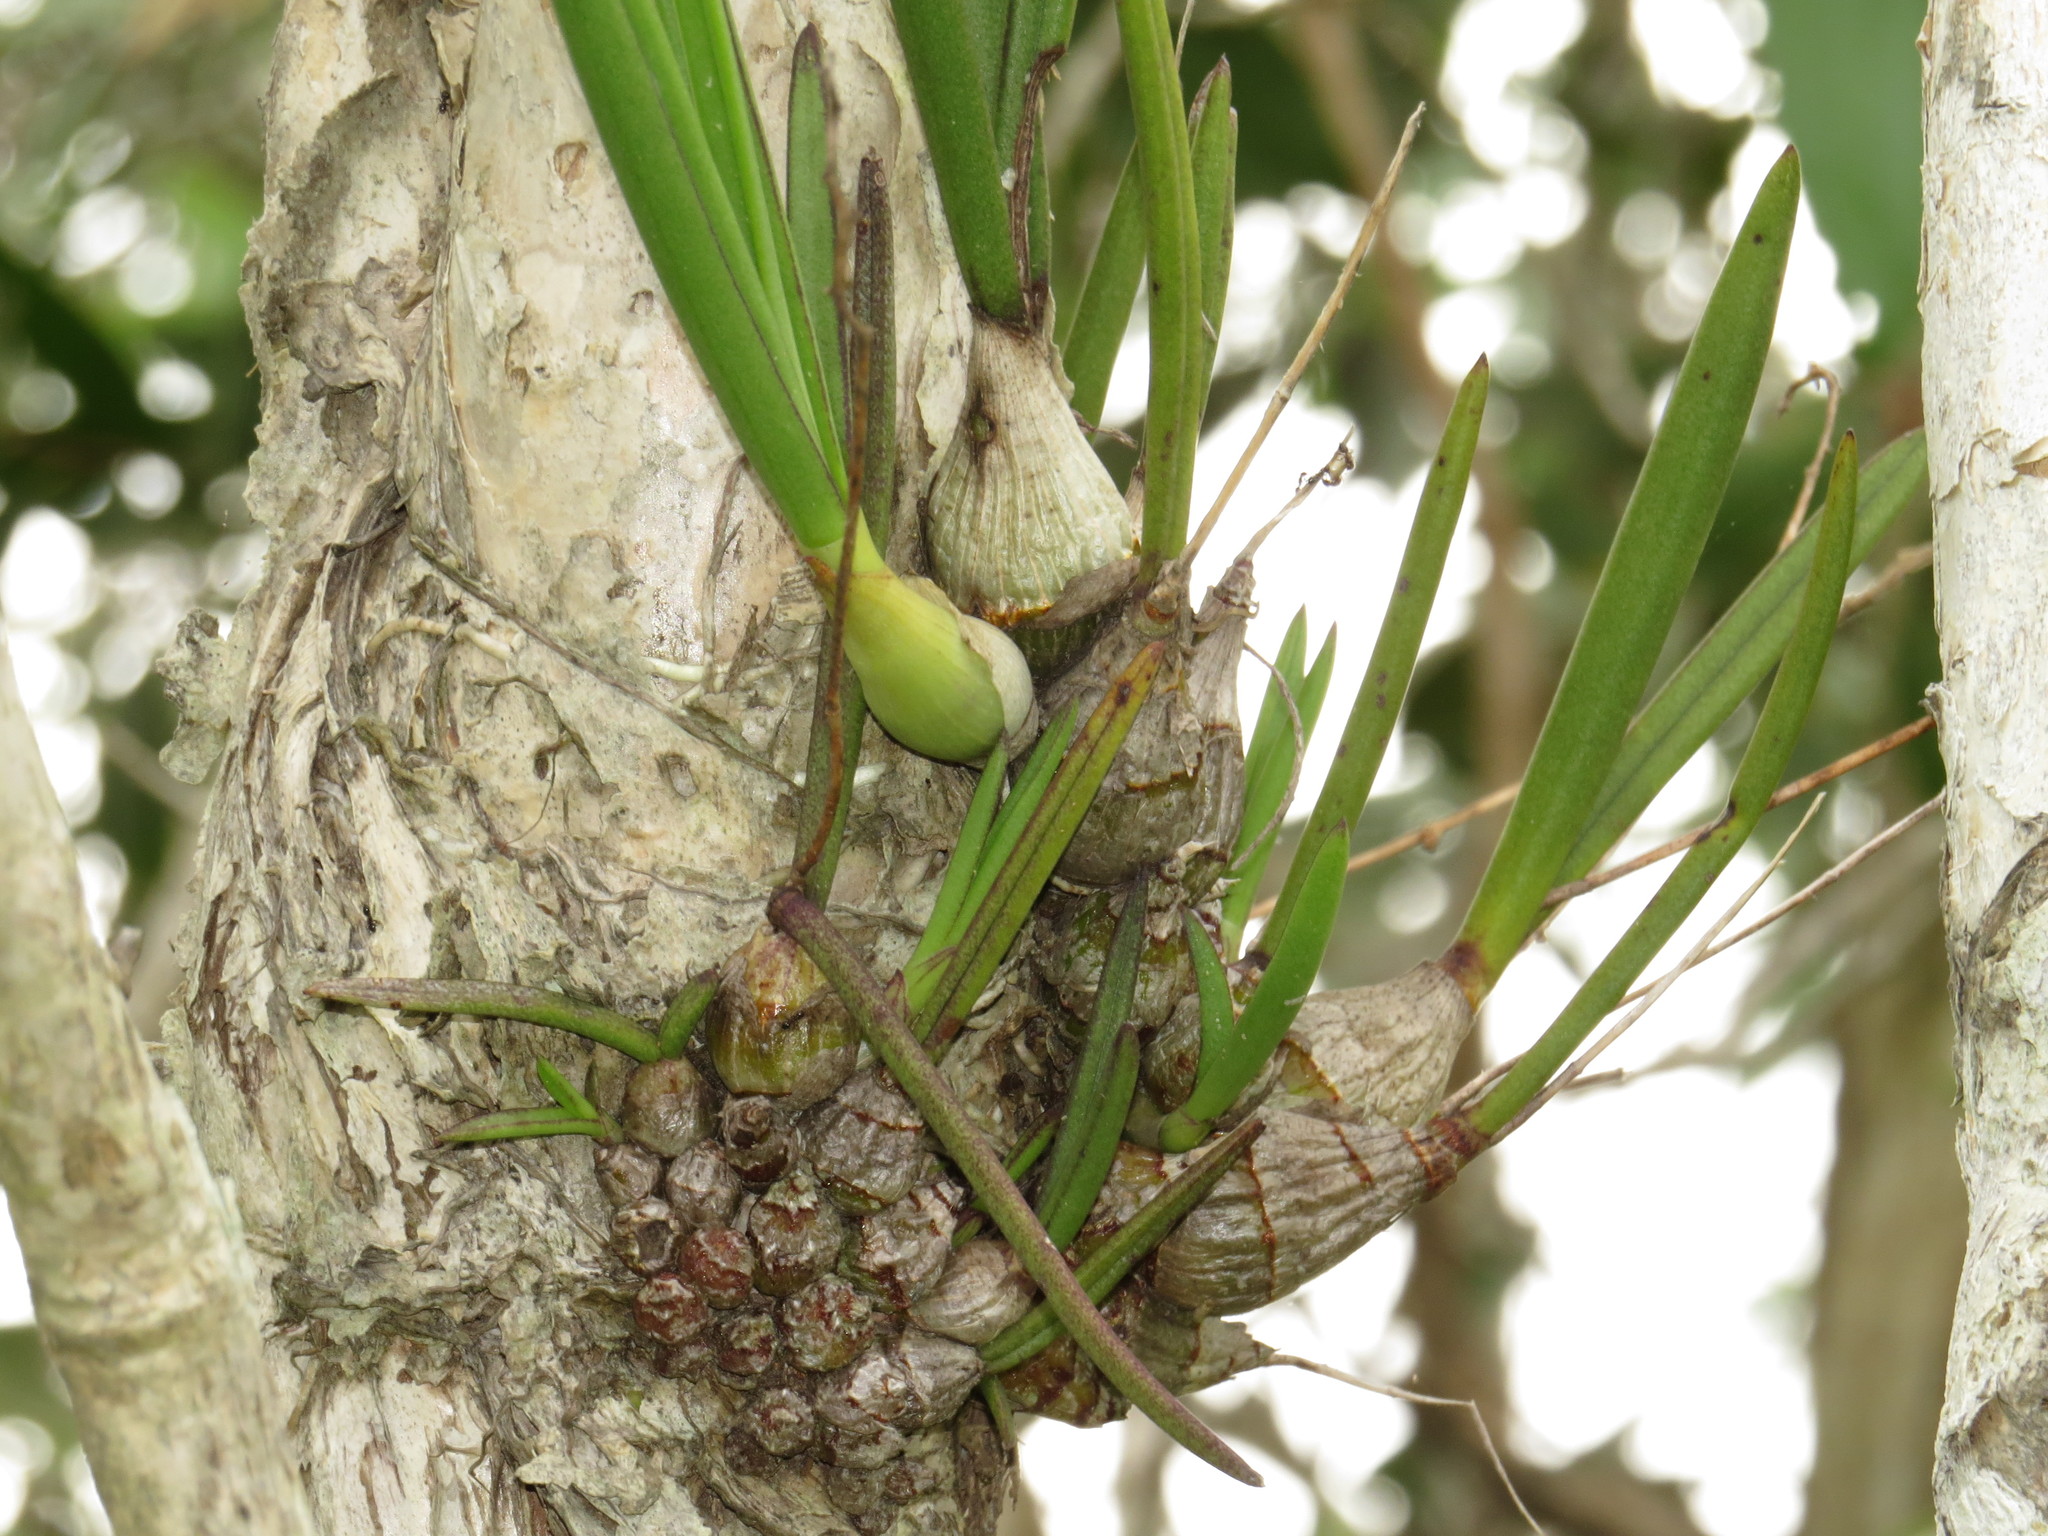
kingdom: Plantae
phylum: Tracheophyta
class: Liliopsida
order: Asparagales
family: Orchidaceae
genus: Dendrobium
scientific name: Dendrobium canaliculatum
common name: Tea tree orchid
